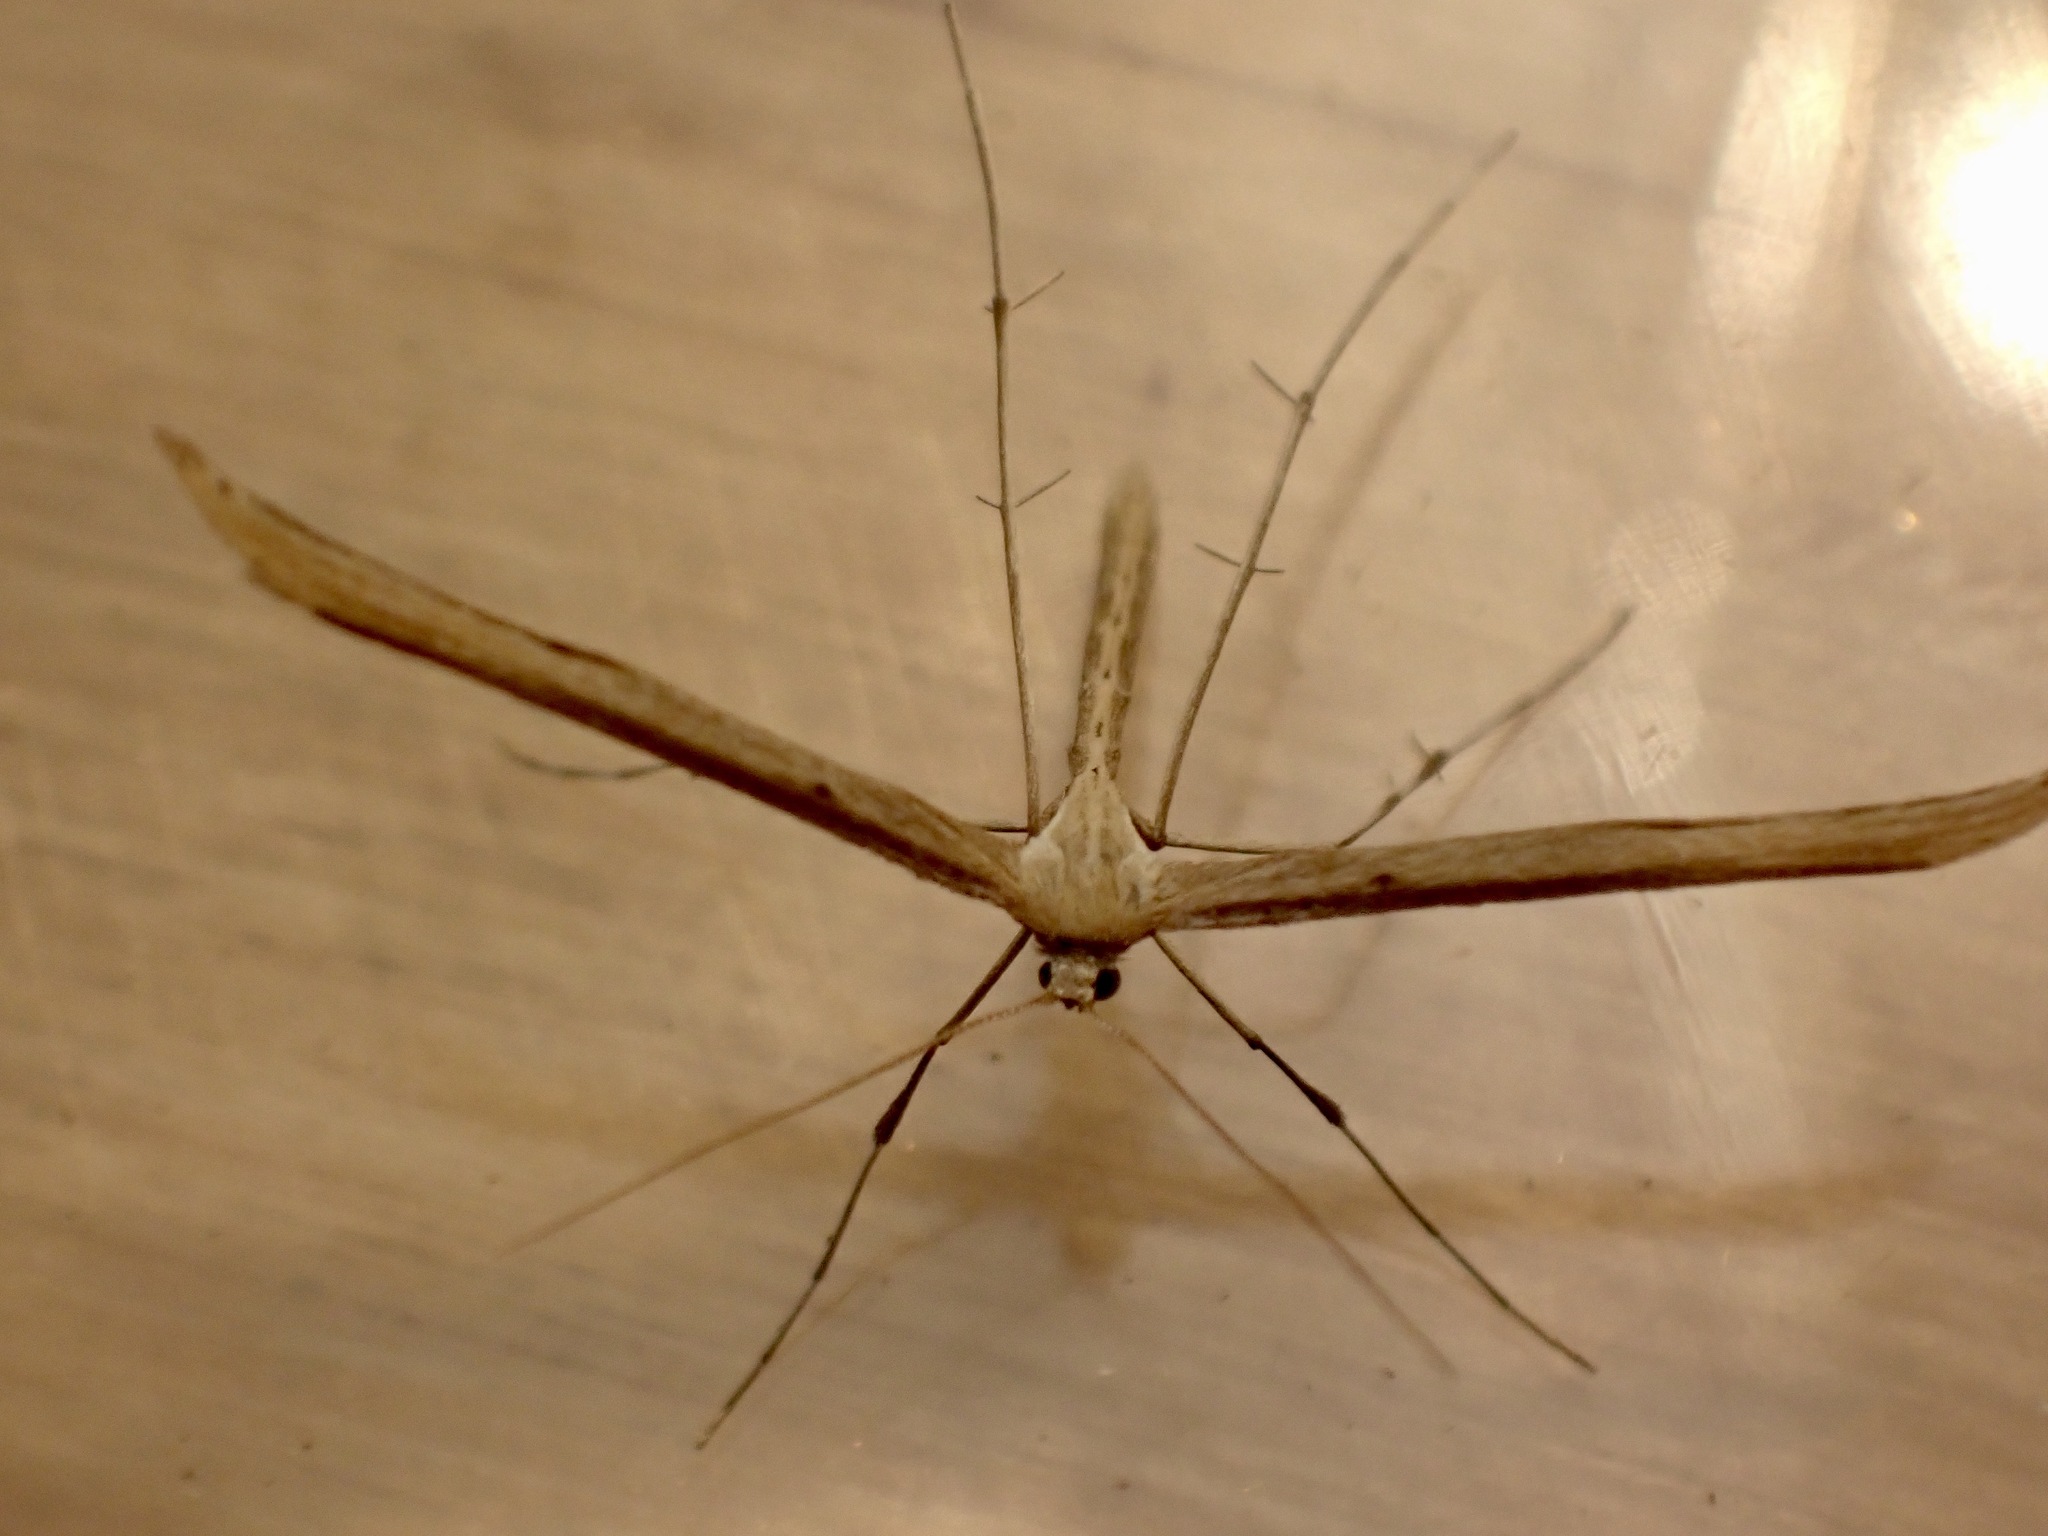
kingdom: Animalia
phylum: Arthropoda
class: Insecta
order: Lepidoptera
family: Pterophoridae
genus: Emmelina
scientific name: Emmelina monodactyla
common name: Common plume
